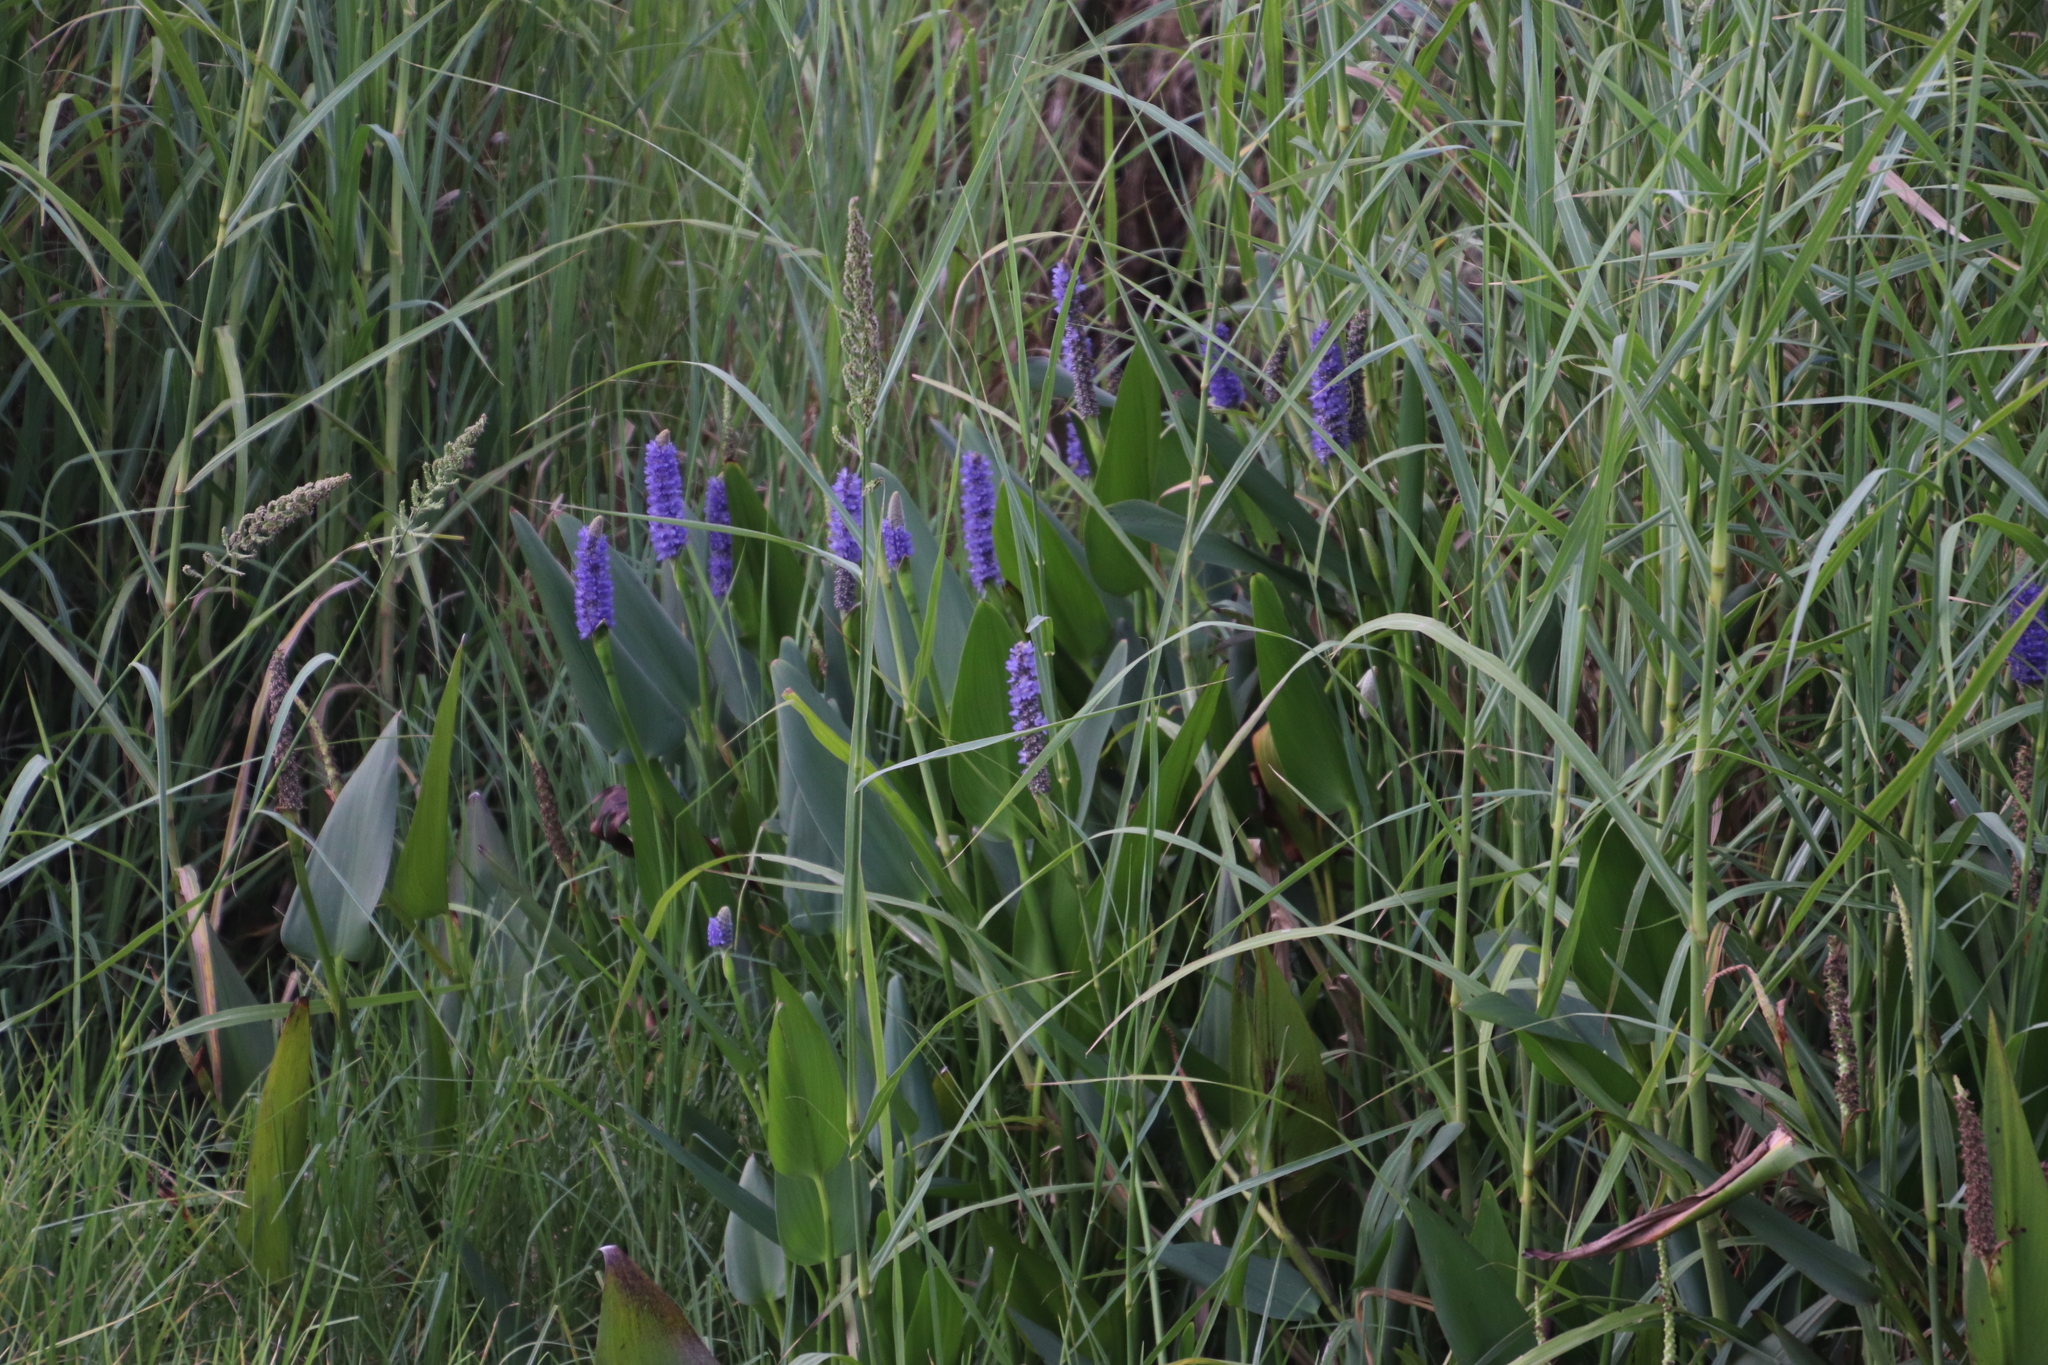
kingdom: Plantae
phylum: Tracheophyta
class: Liliopsida
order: Commelinales
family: Pontederiaceae
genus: Pontederia
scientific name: Pontederia cordata
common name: Pickerelweed
